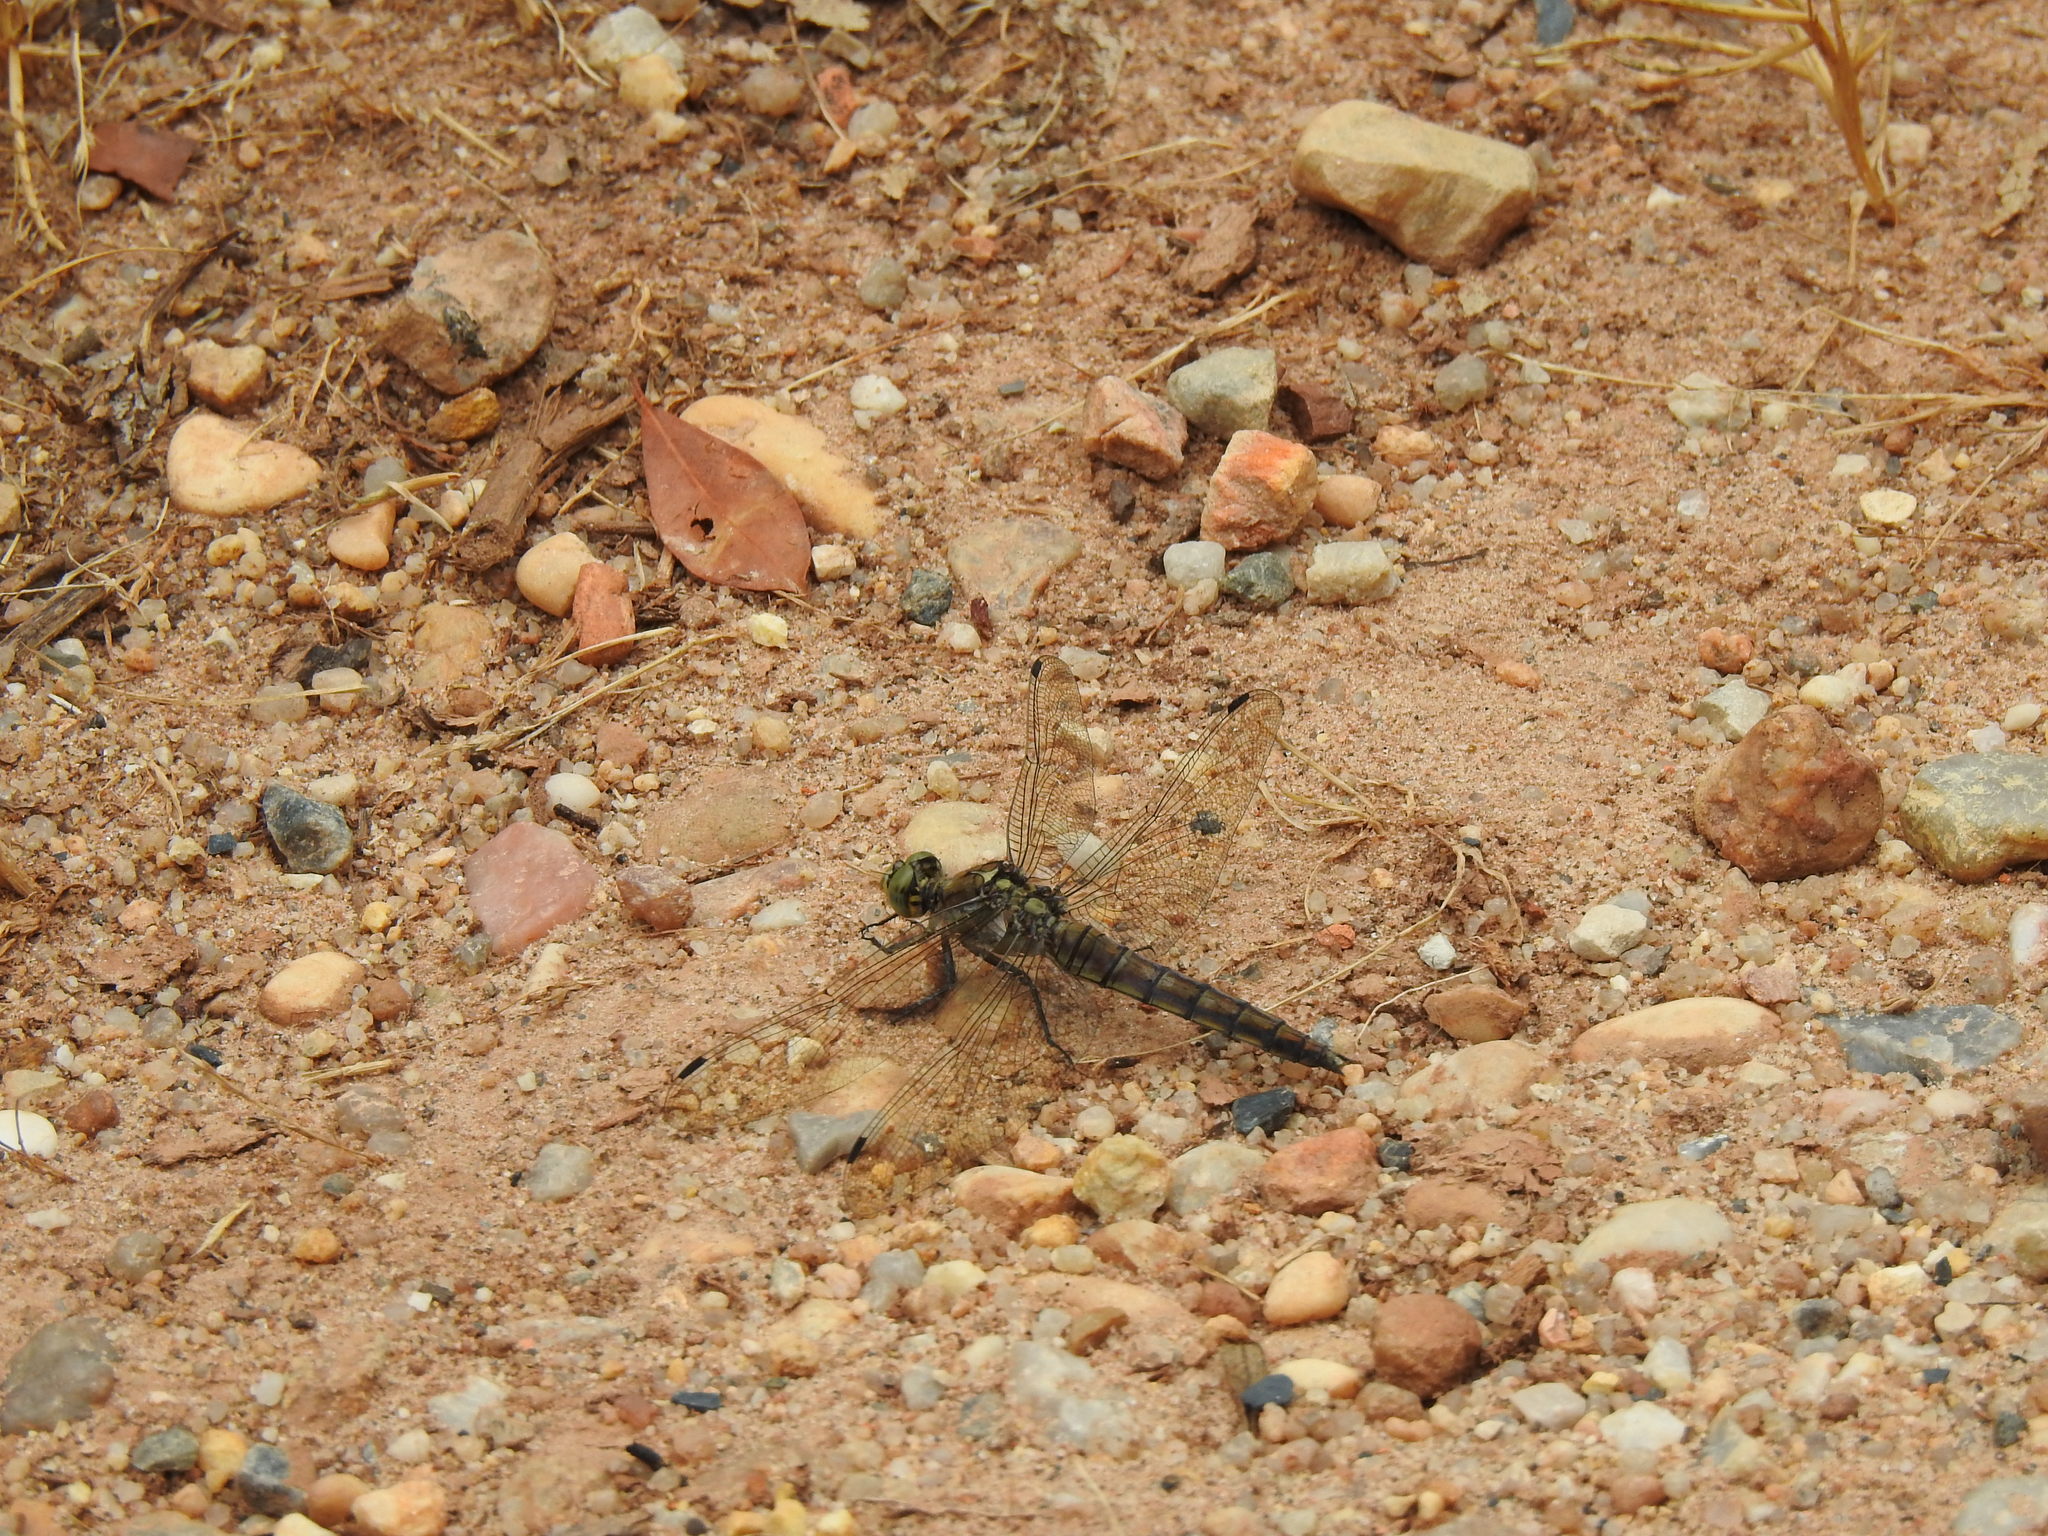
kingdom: Animalia
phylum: Arthropoda
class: Insecta
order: Odonata
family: Libellulidae
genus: Orthetrum
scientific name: Orthetrum cancellatum
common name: Black-tailed skimmer
